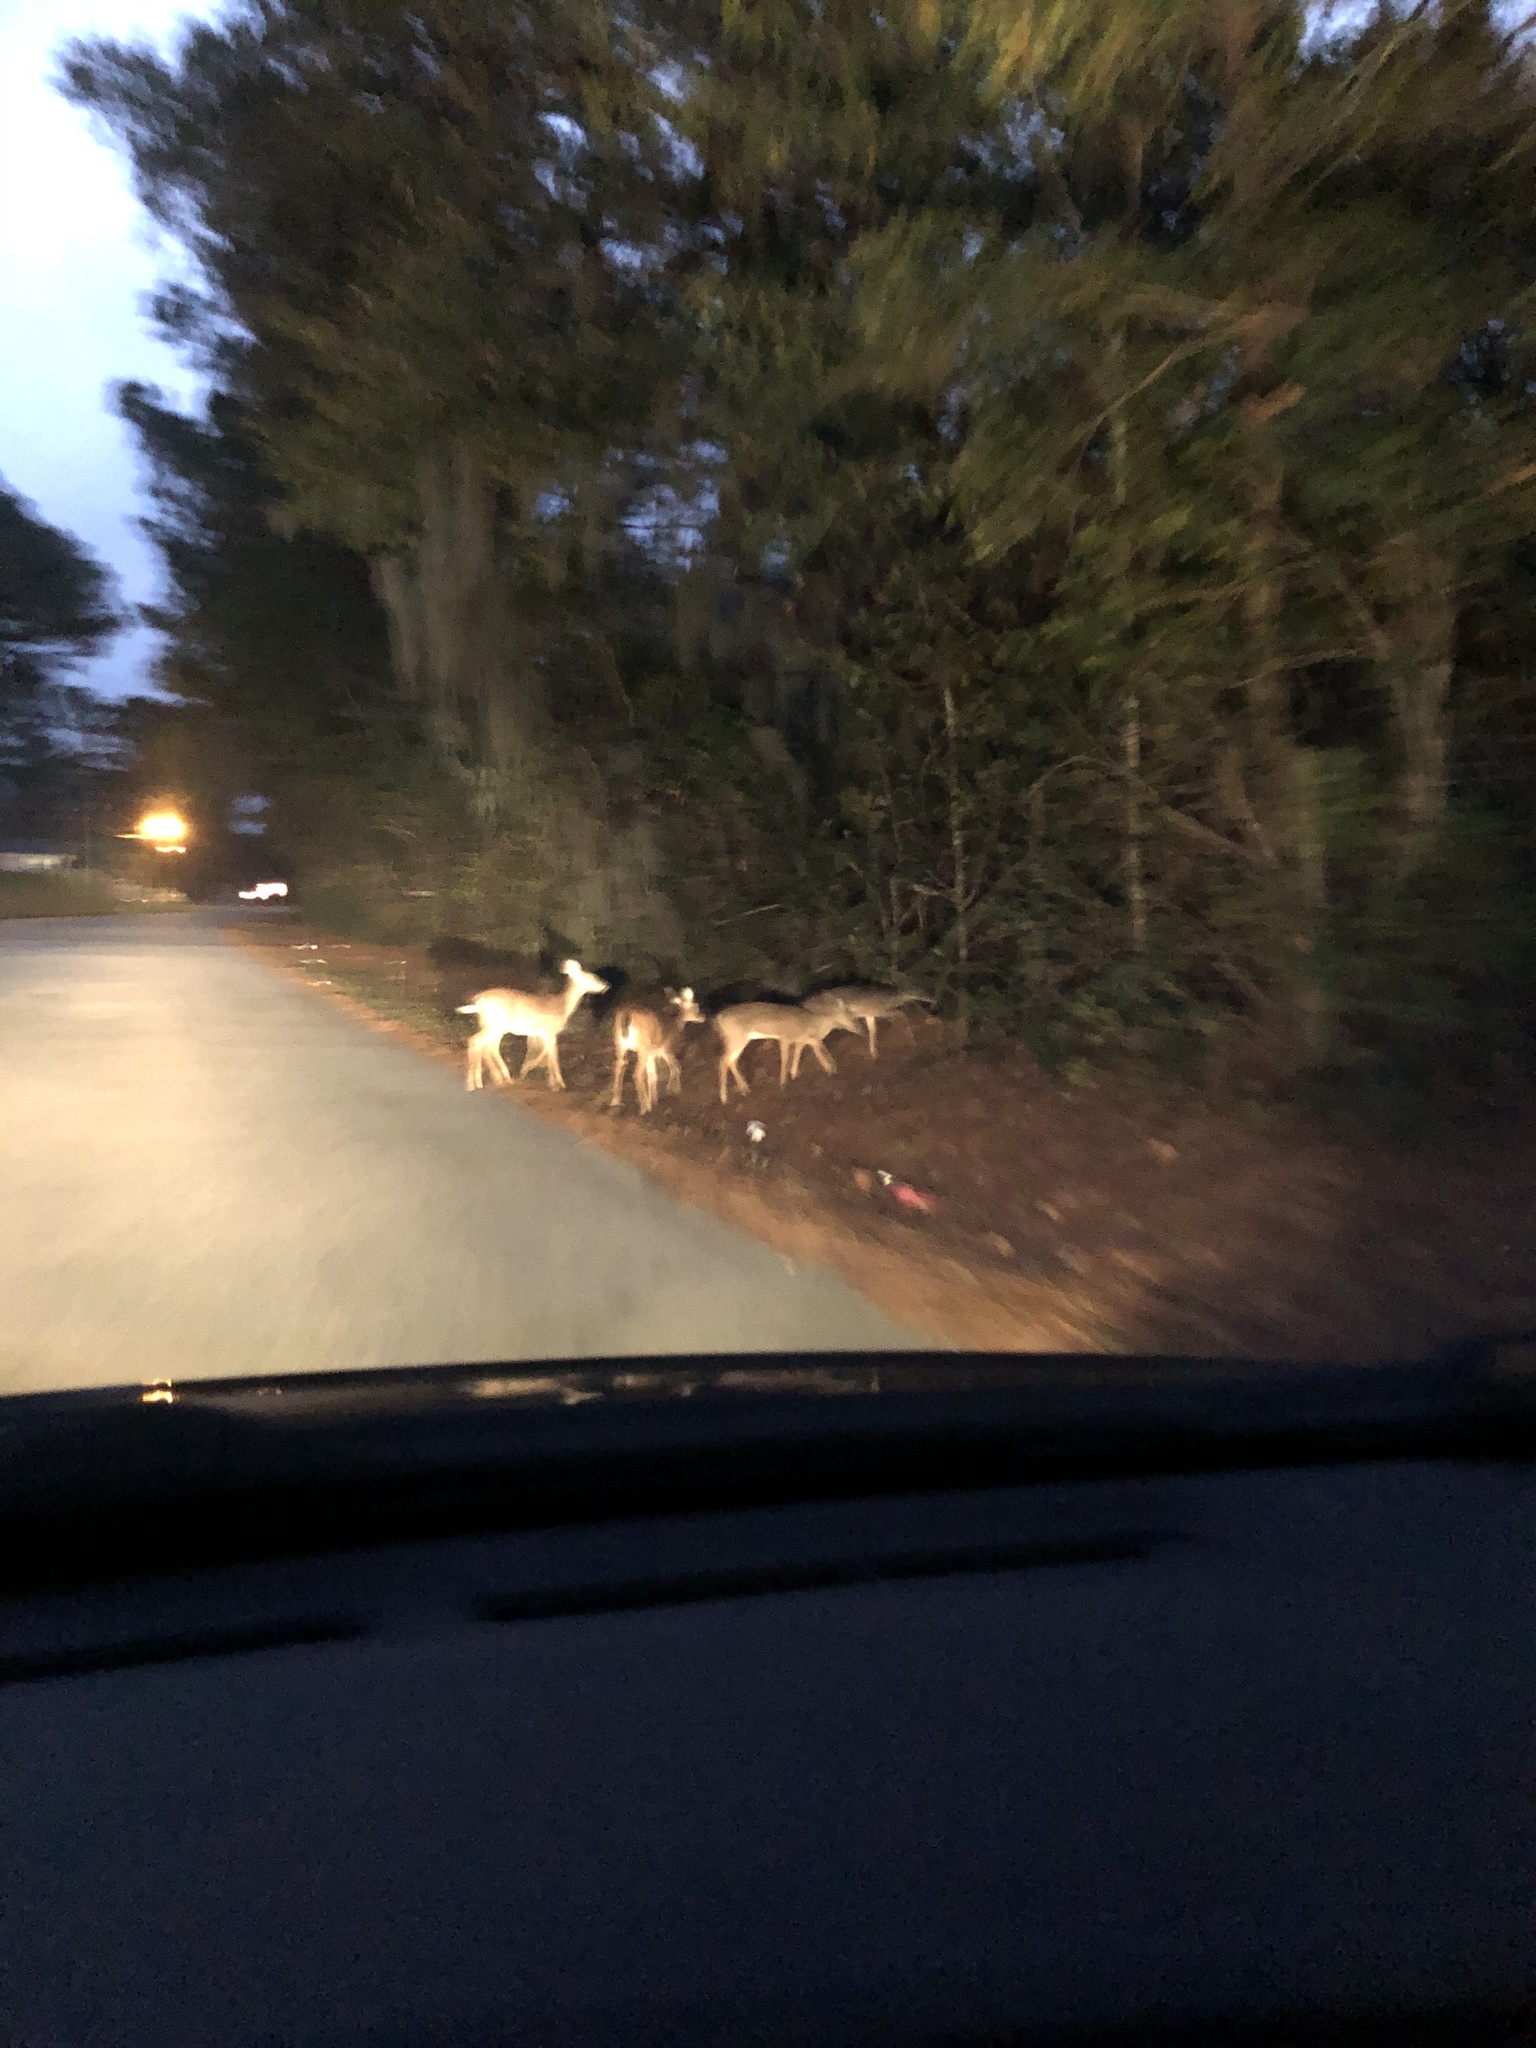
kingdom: Animalia
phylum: Chordata
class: Mammalia
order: Artiodactyla
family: Cervidae
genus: Odocoileus
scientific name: Odocoileus virginianus
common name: White-tailed deer
